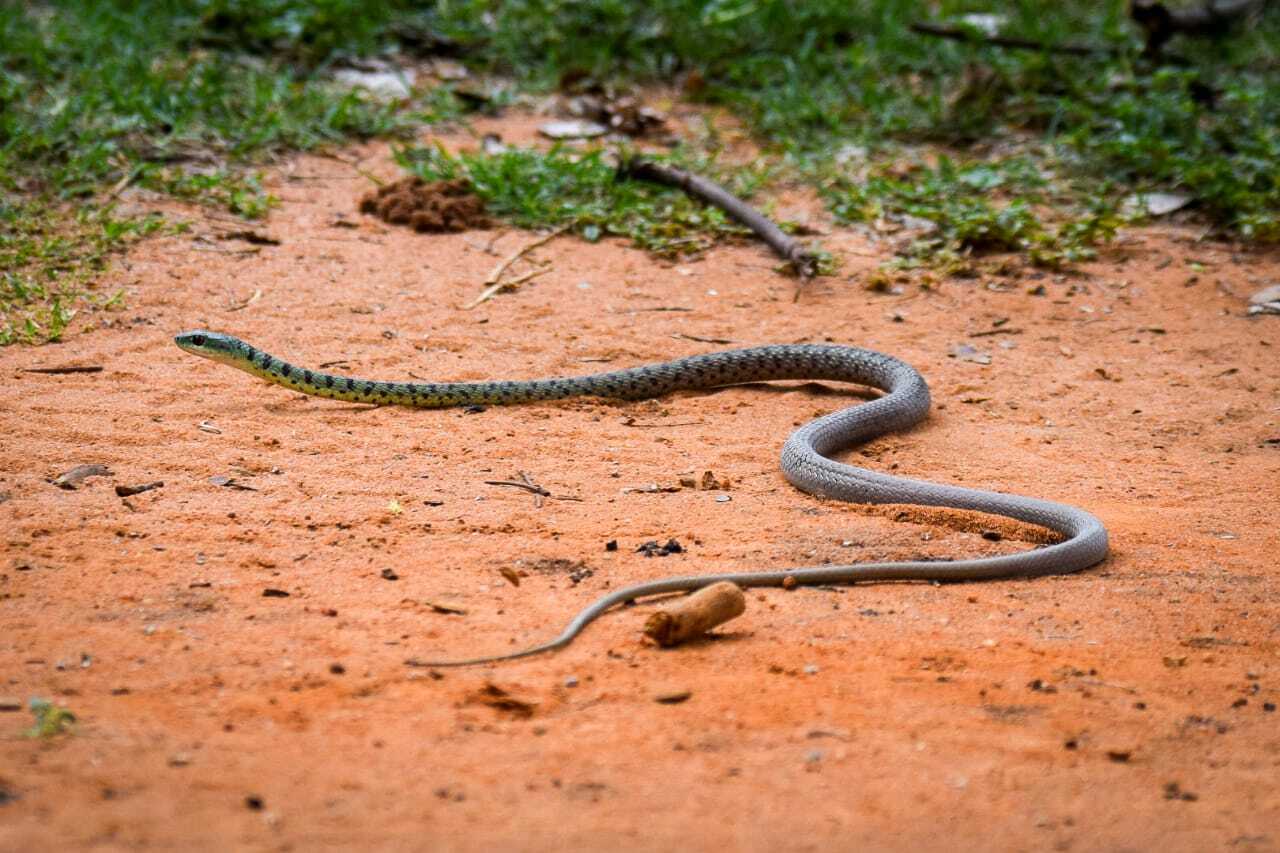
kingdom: Animalia
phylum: Chordata
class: Squamata
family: Colubridae
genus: Philothamnus
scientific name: Philothamnus semivariegatus
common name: Spotted bush snake
